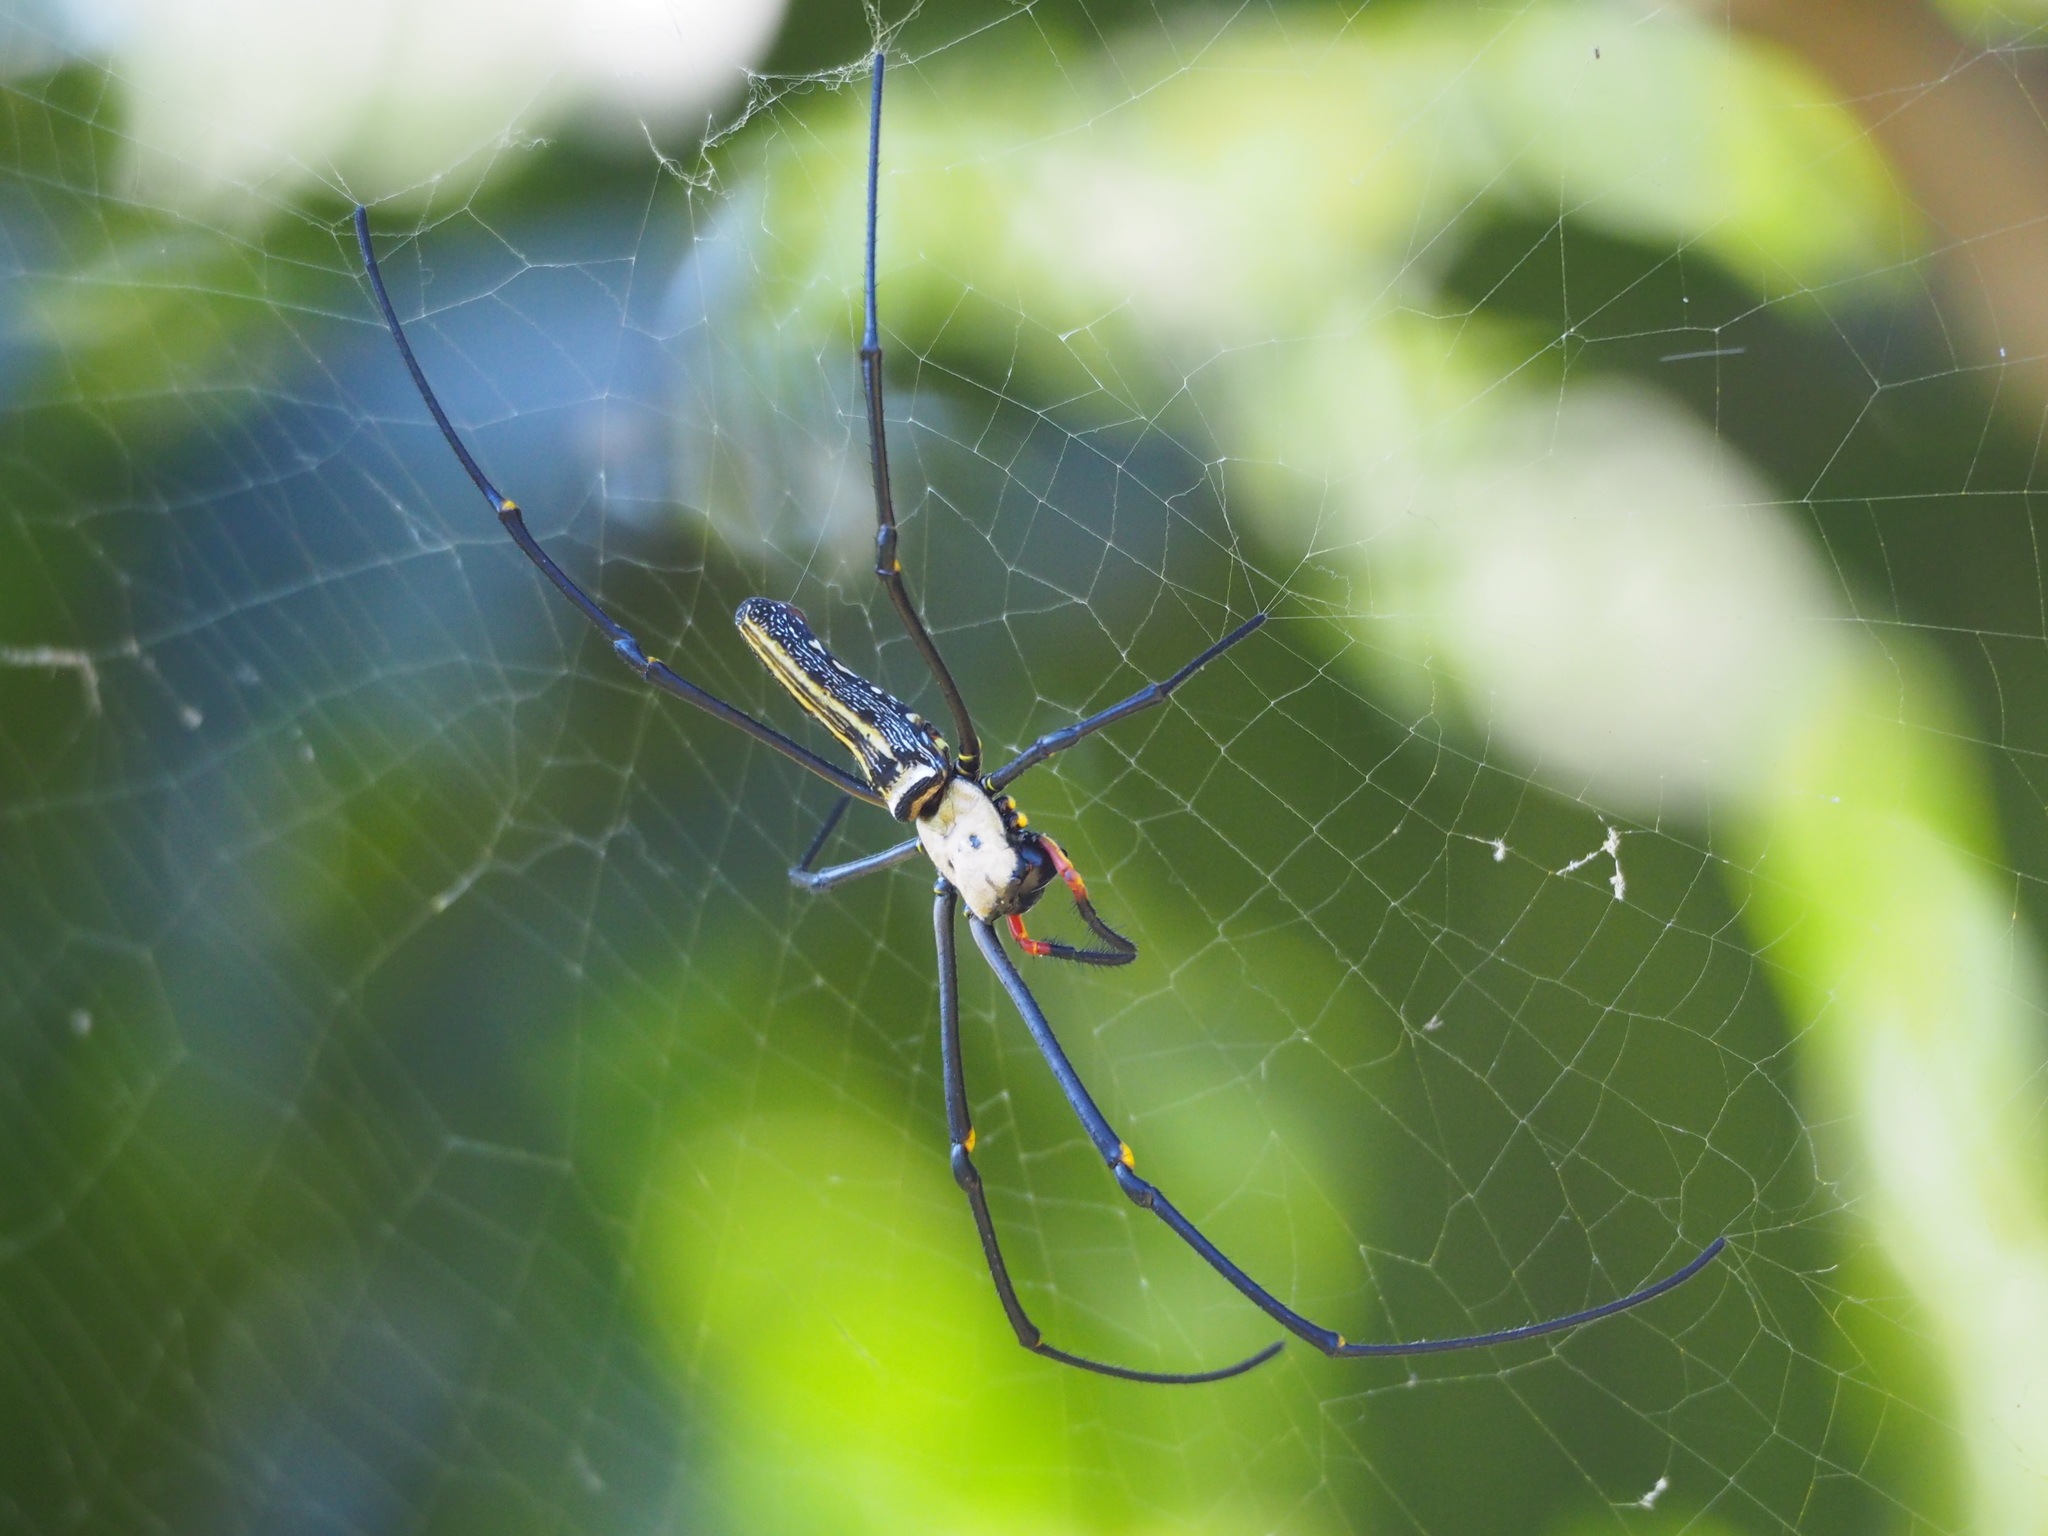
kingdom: Animalia
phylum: Arthropoda
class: Arachnida
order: Araneae
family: Araneidae
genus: Nephila
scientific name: Nephila pilipes
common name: Giant golden orb weaver
